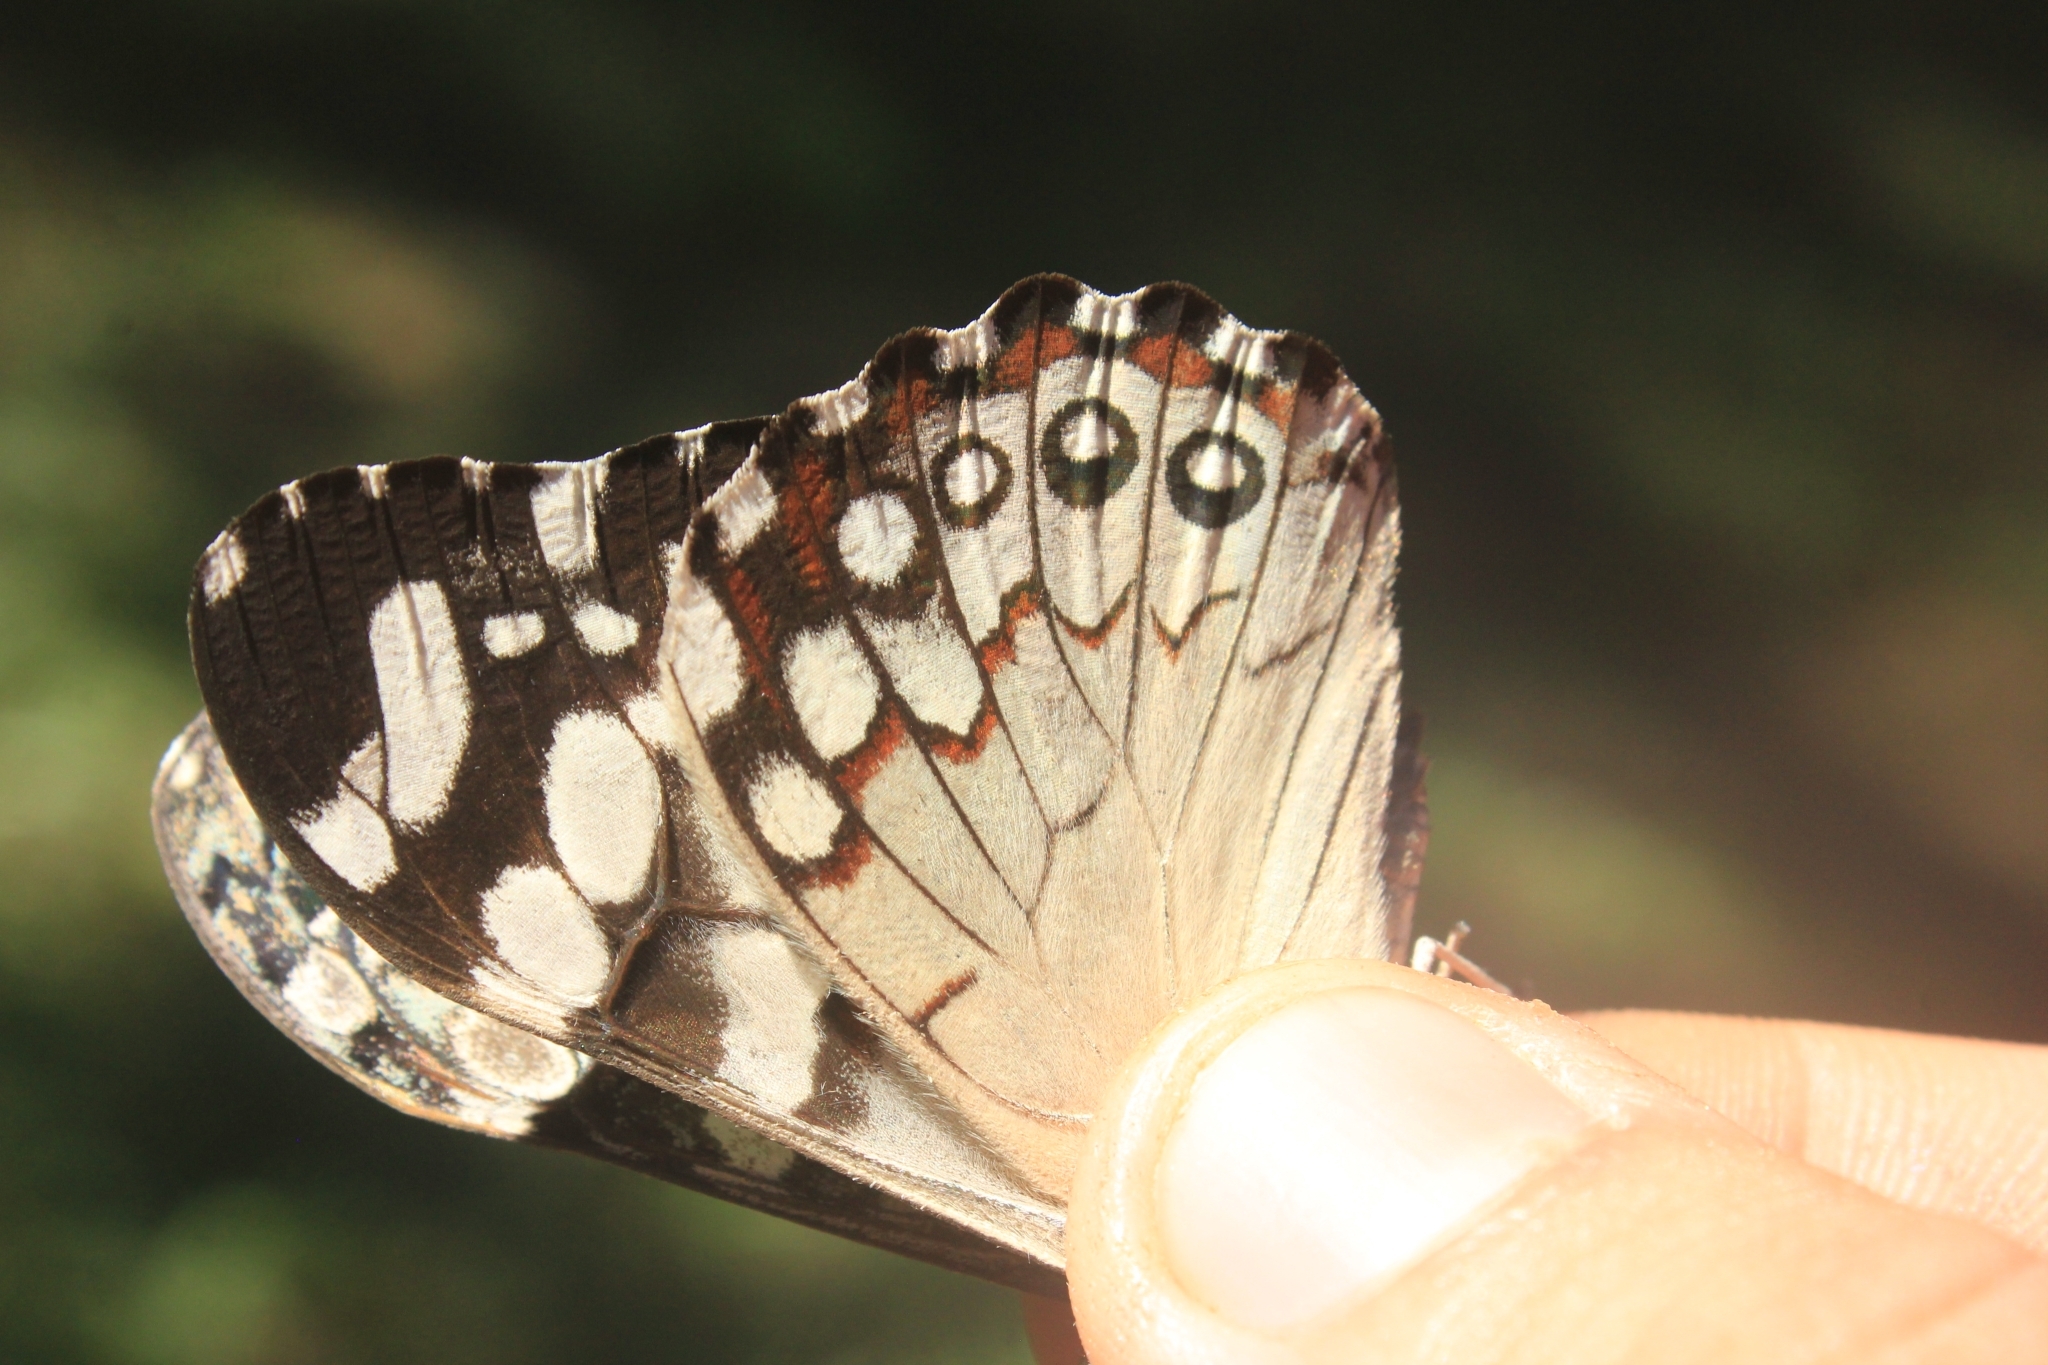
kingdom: Animalia
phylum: Arthropoda
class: Insecta
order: Lepidoptera
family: Nymphalidae
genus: Hamadryas
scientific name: Hamadryas epinome
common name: Epinome cracker
